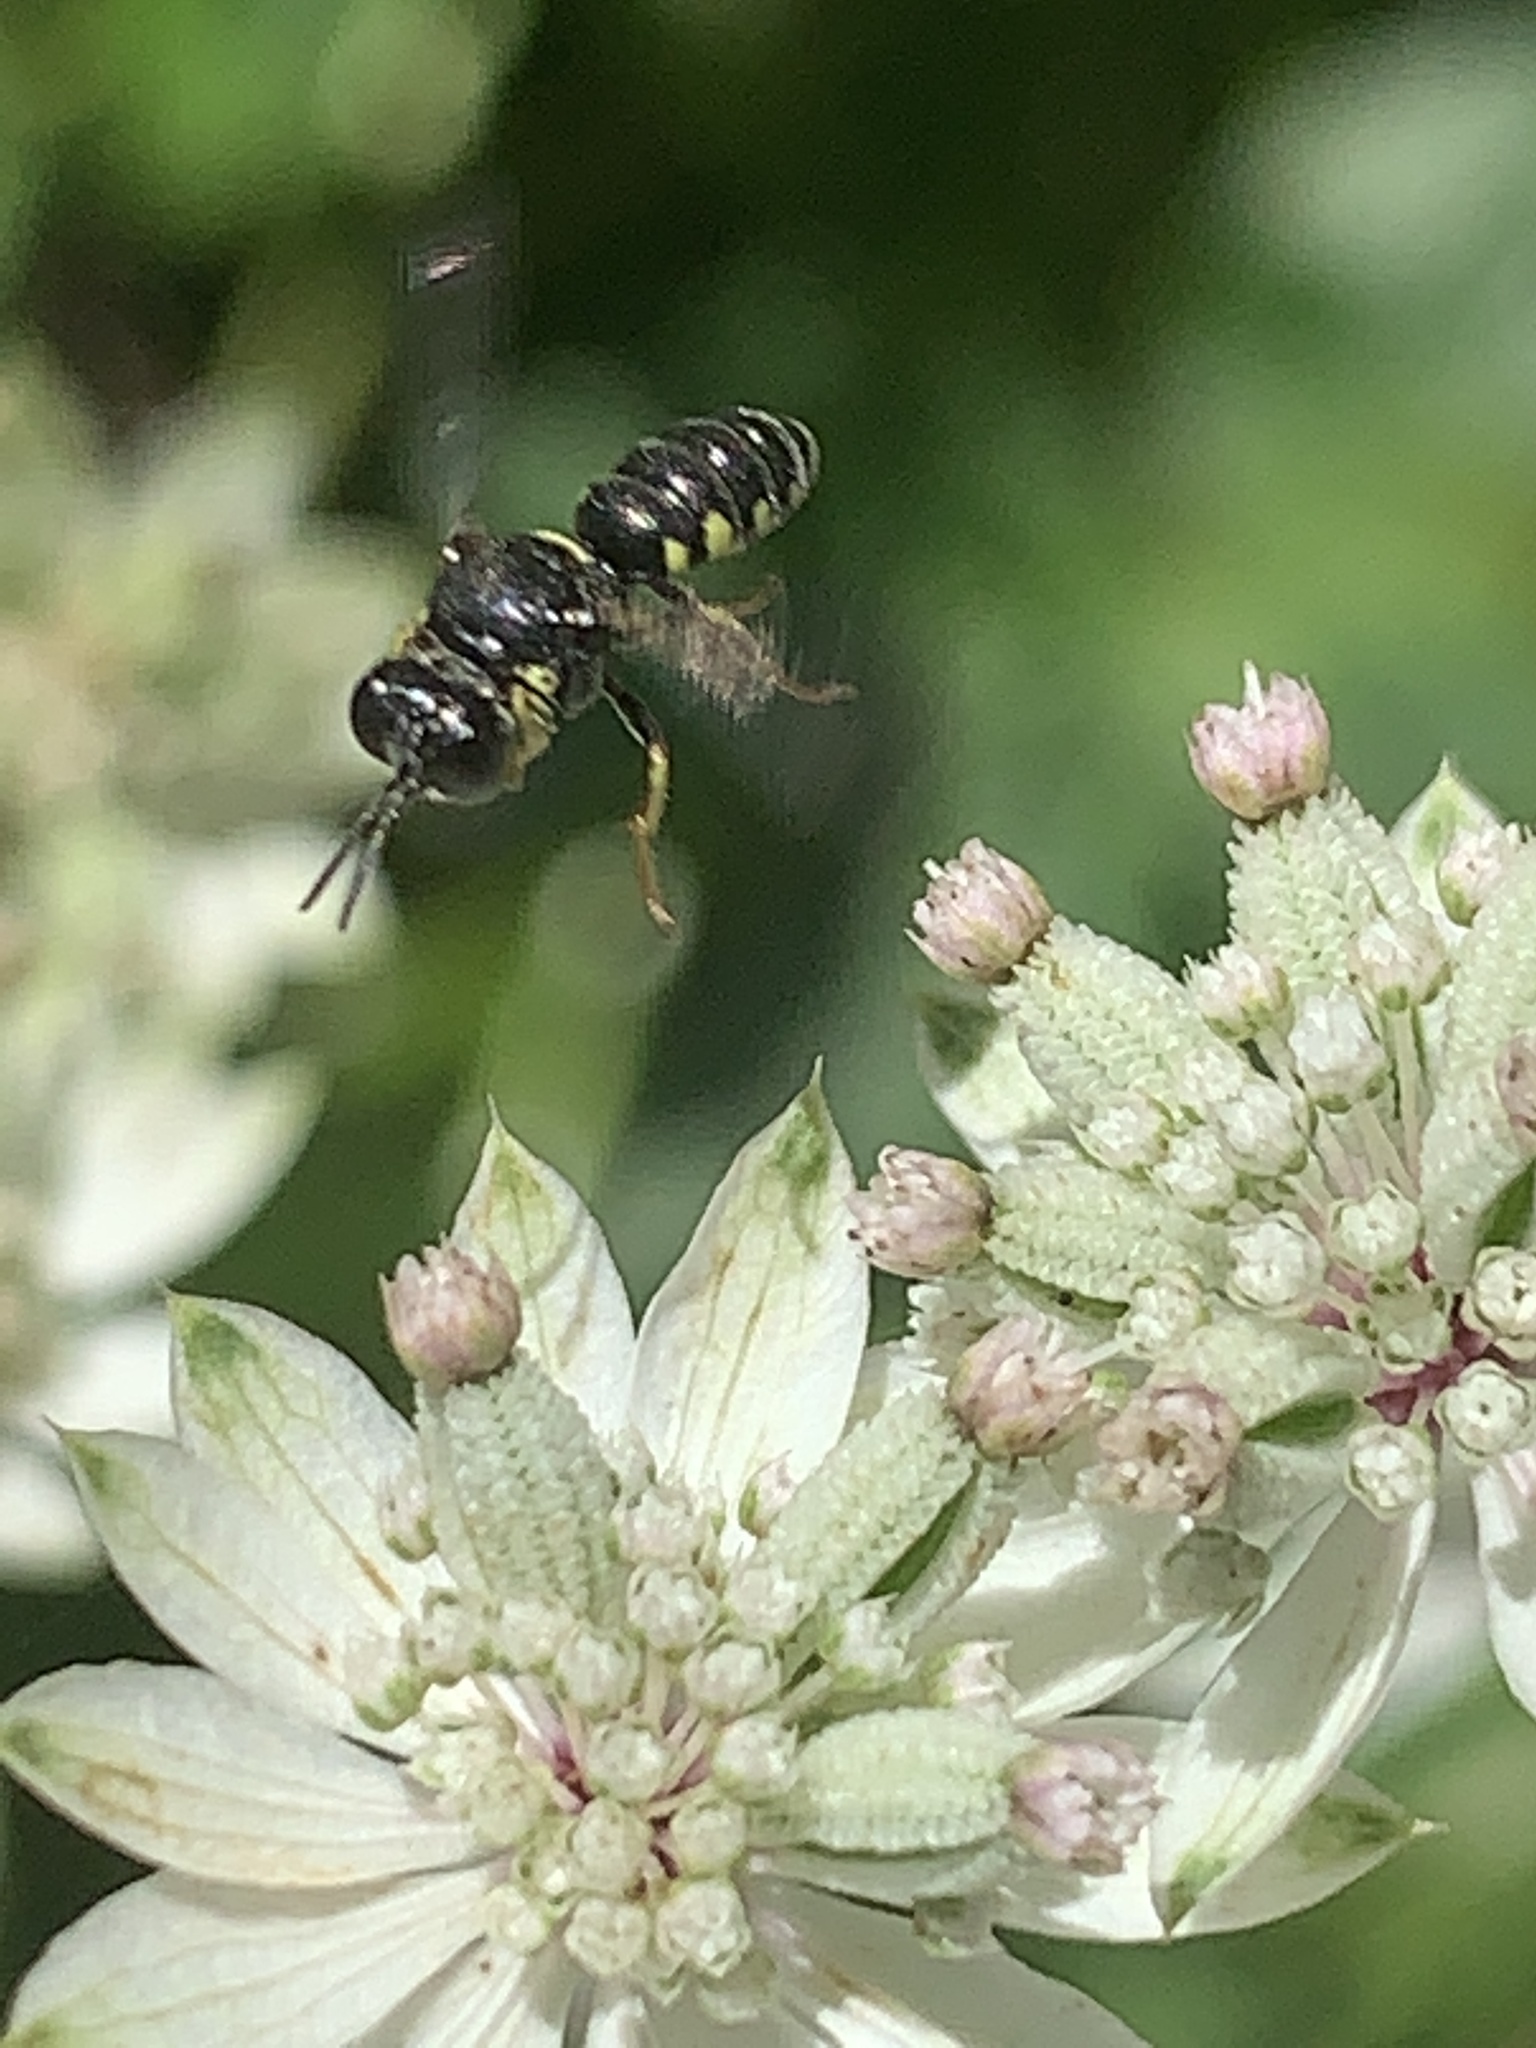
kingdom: Animalia
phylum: Arthropoda
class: Insecta
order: Hymenoptera
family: Crabronidae
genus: Anacrabro
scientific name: Anacrabro ocellatus
